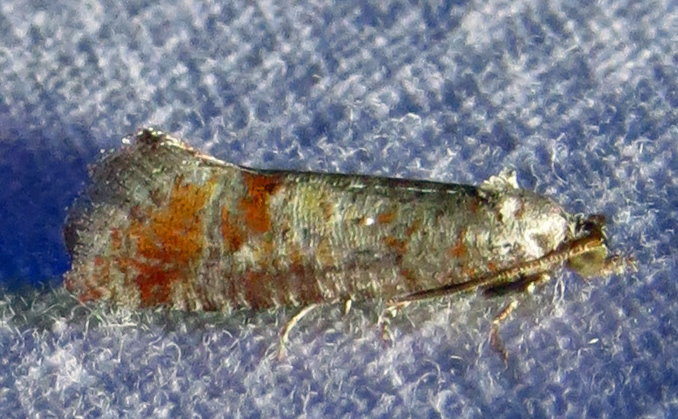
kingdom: Animalia
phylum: Arthropoda
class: Insecta
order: Lepidoptera
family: Tortricidae
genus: Rhyacionia
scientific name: Rhyacionia rigidana
